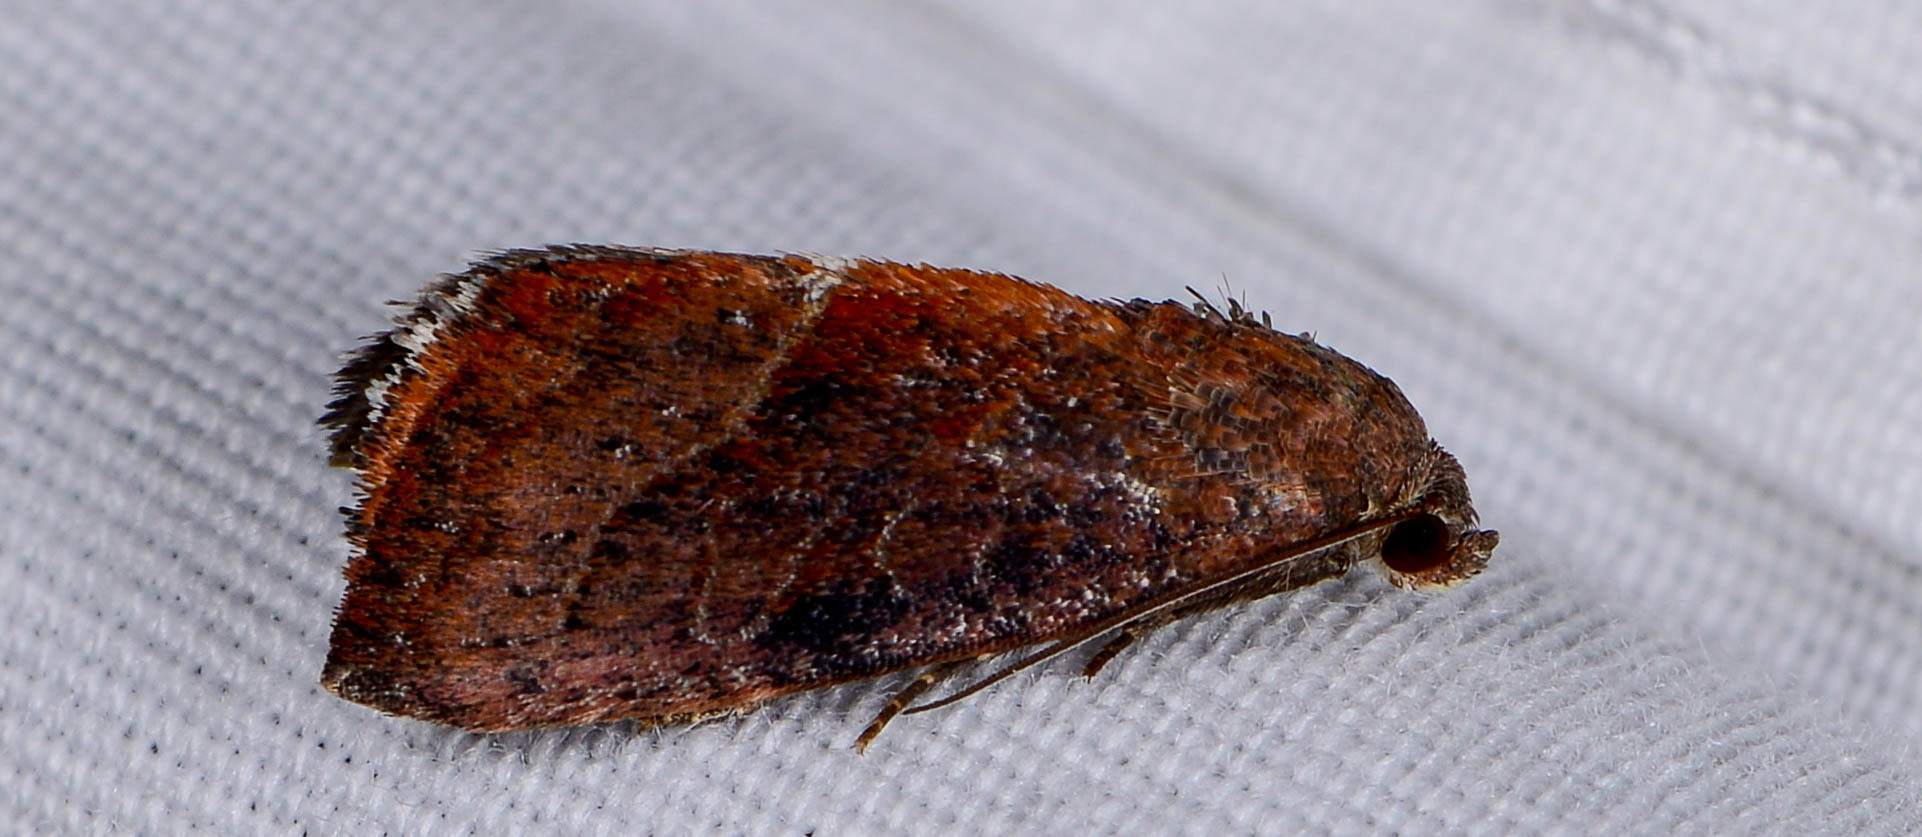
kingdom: Animalia
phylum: Arthropoda
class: Insecta
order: Lepidoptera
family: Noctuidae
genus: Galgula
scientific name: Galgula partita
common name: Wedgeling
